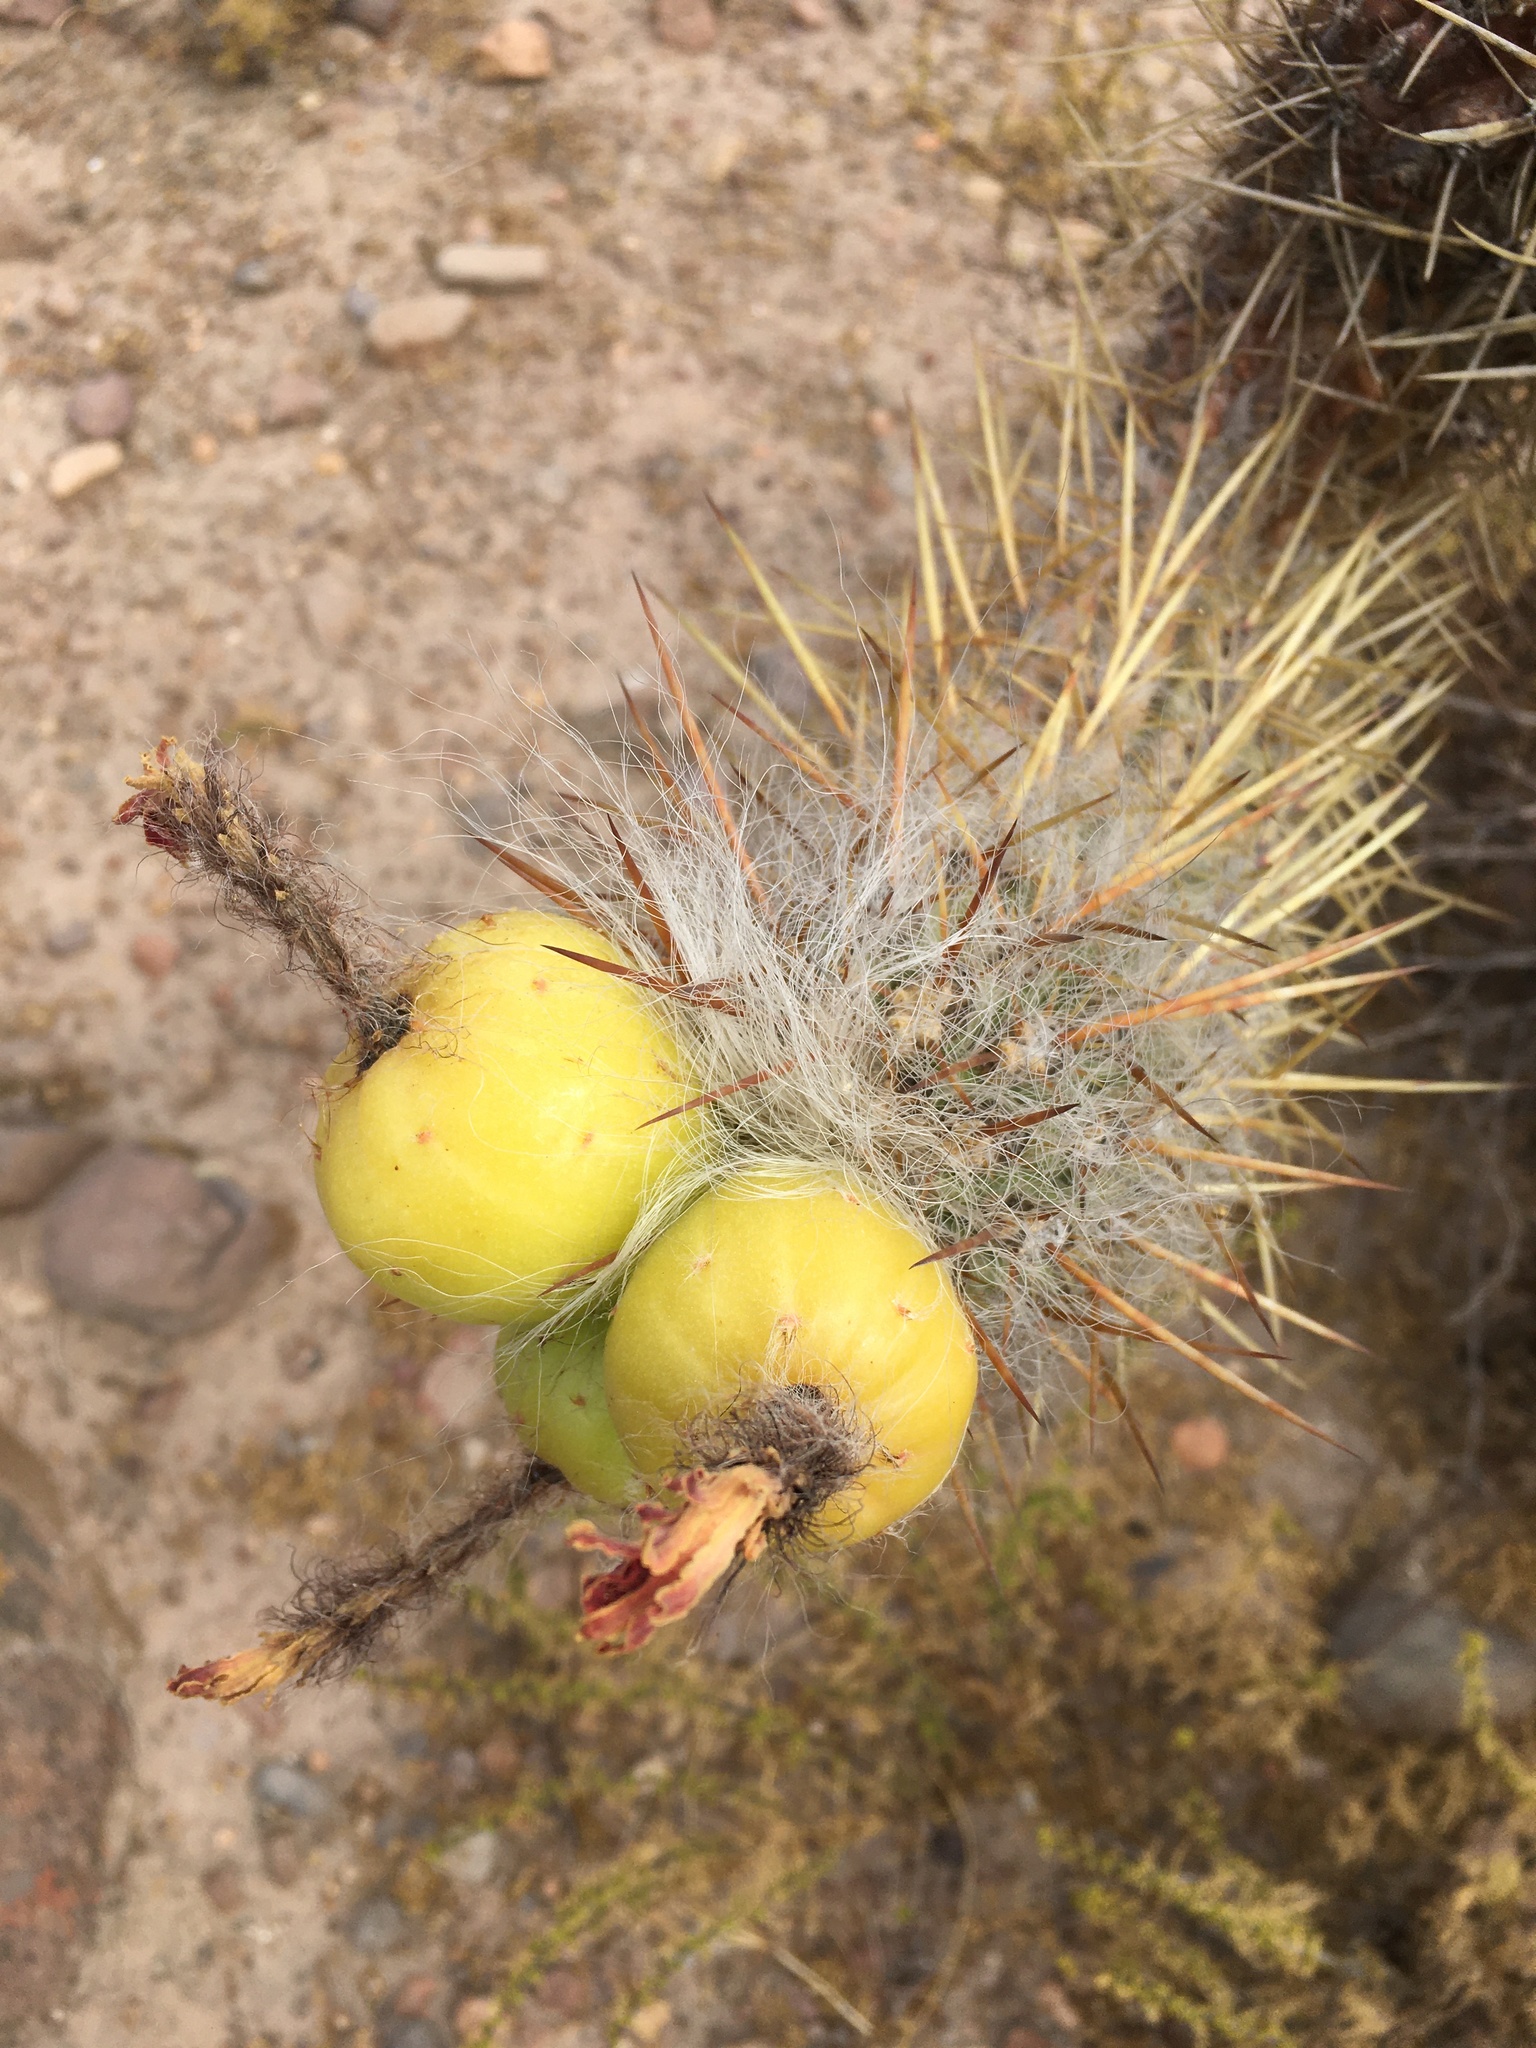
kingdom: Plantae
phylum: Tracheophyta
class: Magnoliopsida
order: Caryophyllales
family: Cactaceae
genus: Oreocereus
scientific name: Oreocereus leucotrichus
